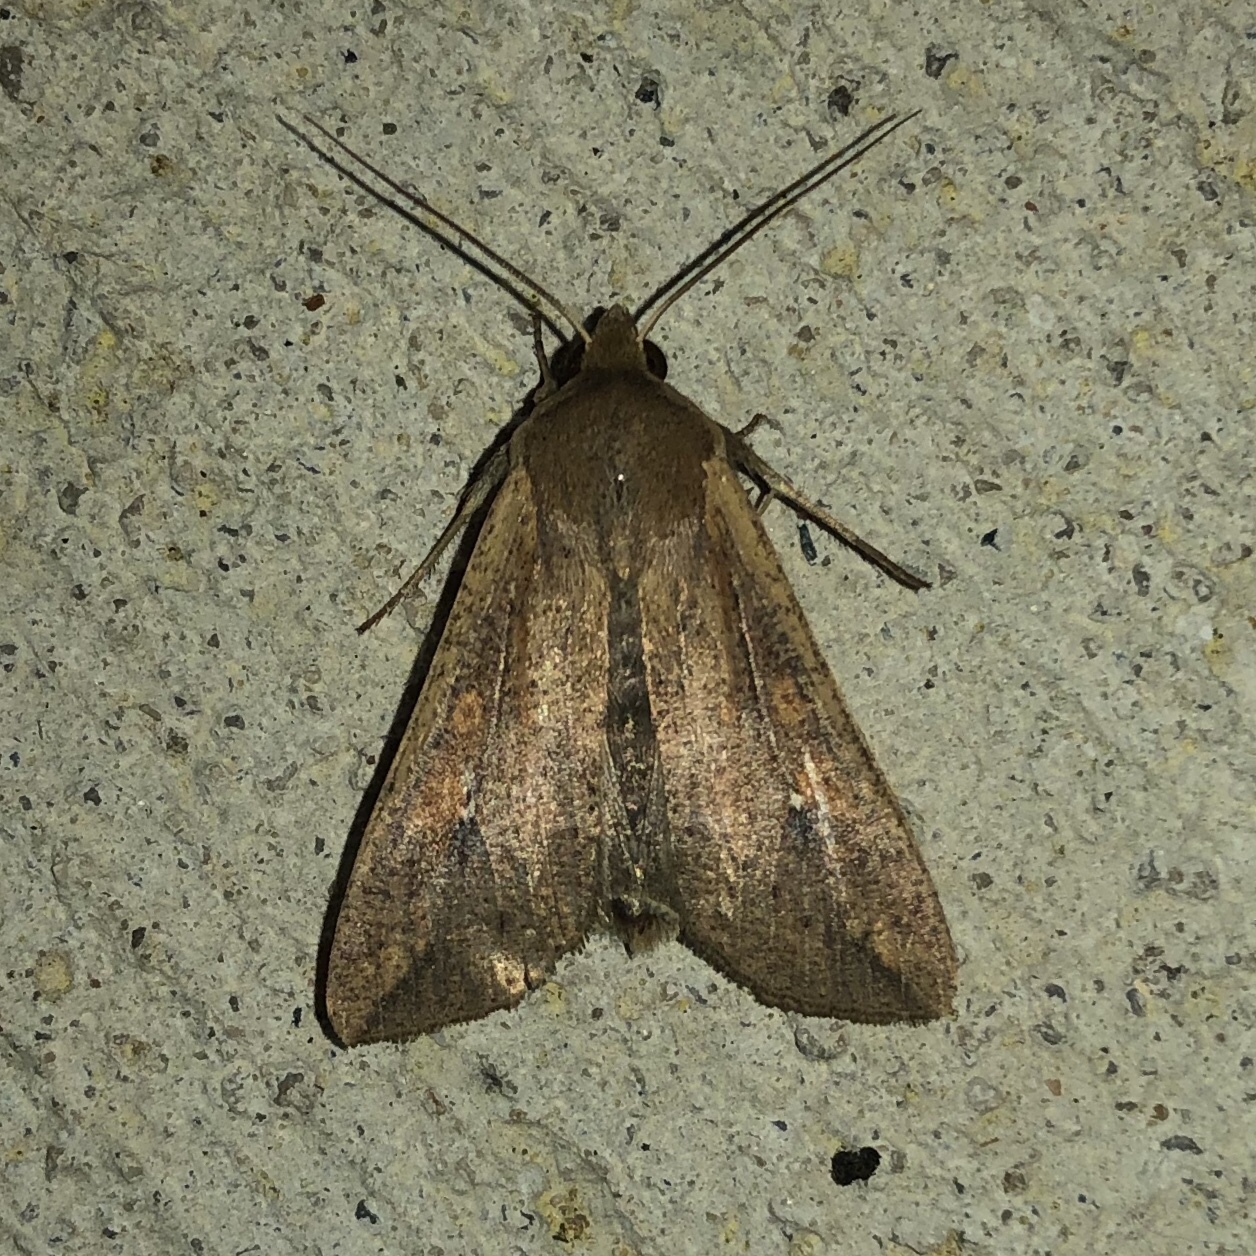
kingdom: Animalia
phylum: Arthropoda
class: Insecta
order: Lepidoptera
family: Noctuidae
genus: Mythimna
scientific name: Mythimna unipuncta
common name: White-speck
